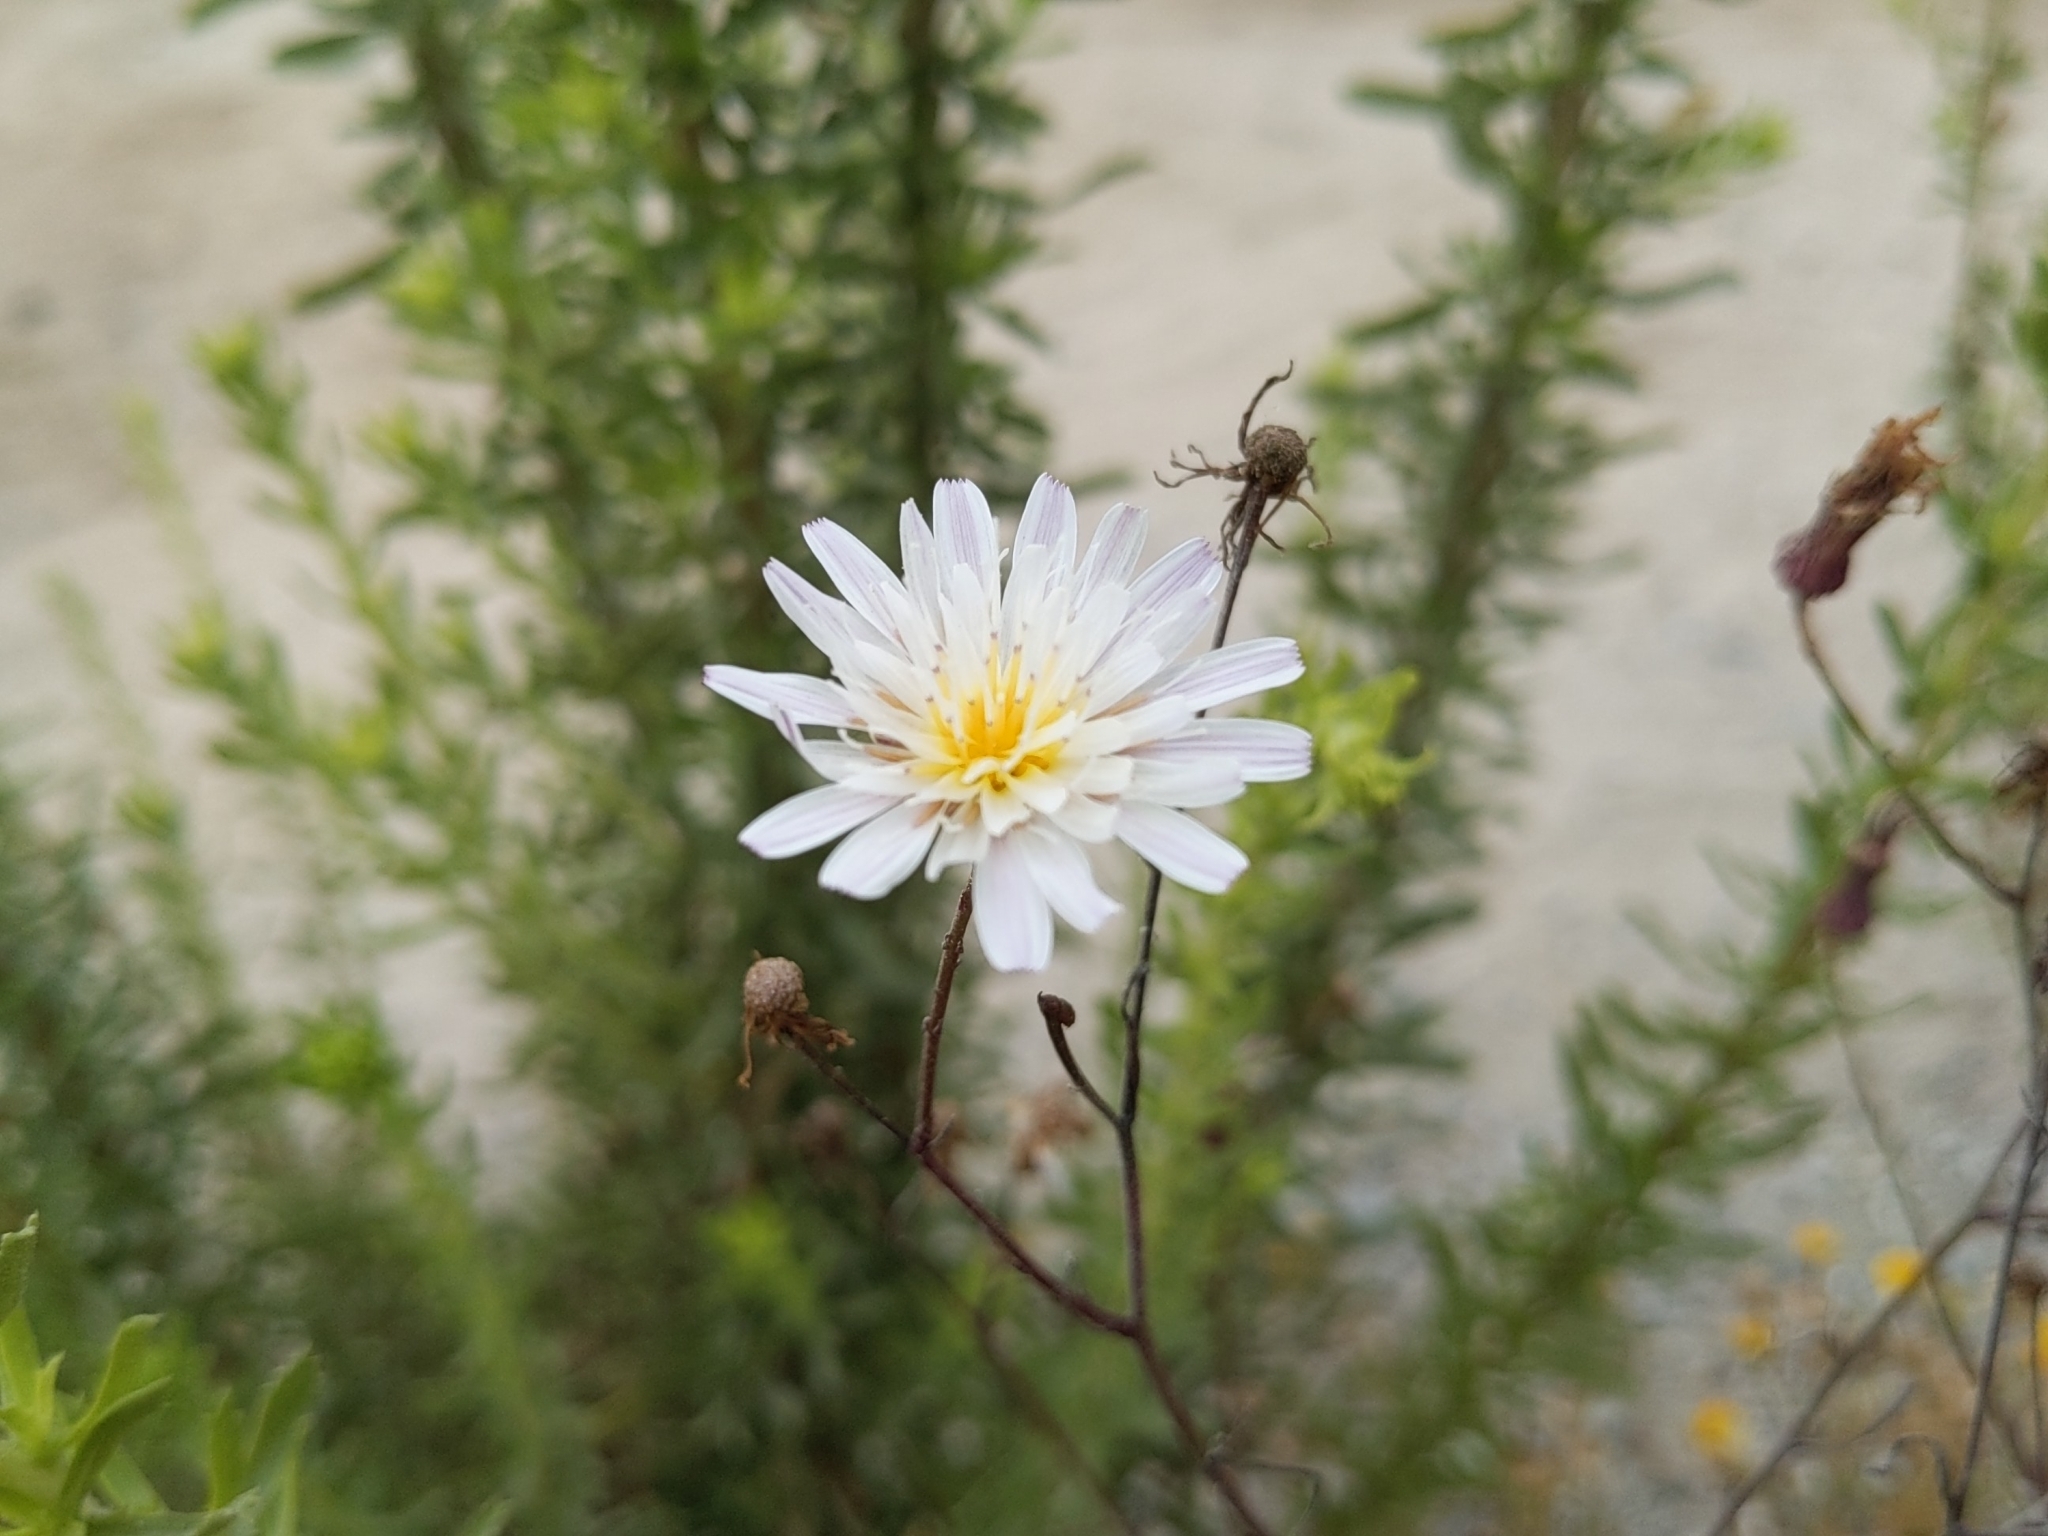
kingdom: Plantae
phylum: Tracheophyta
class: Magnoliopsida
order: Asterales
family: Asteraceae
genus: Malacothrix
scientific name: Malacothrix saxatilis
